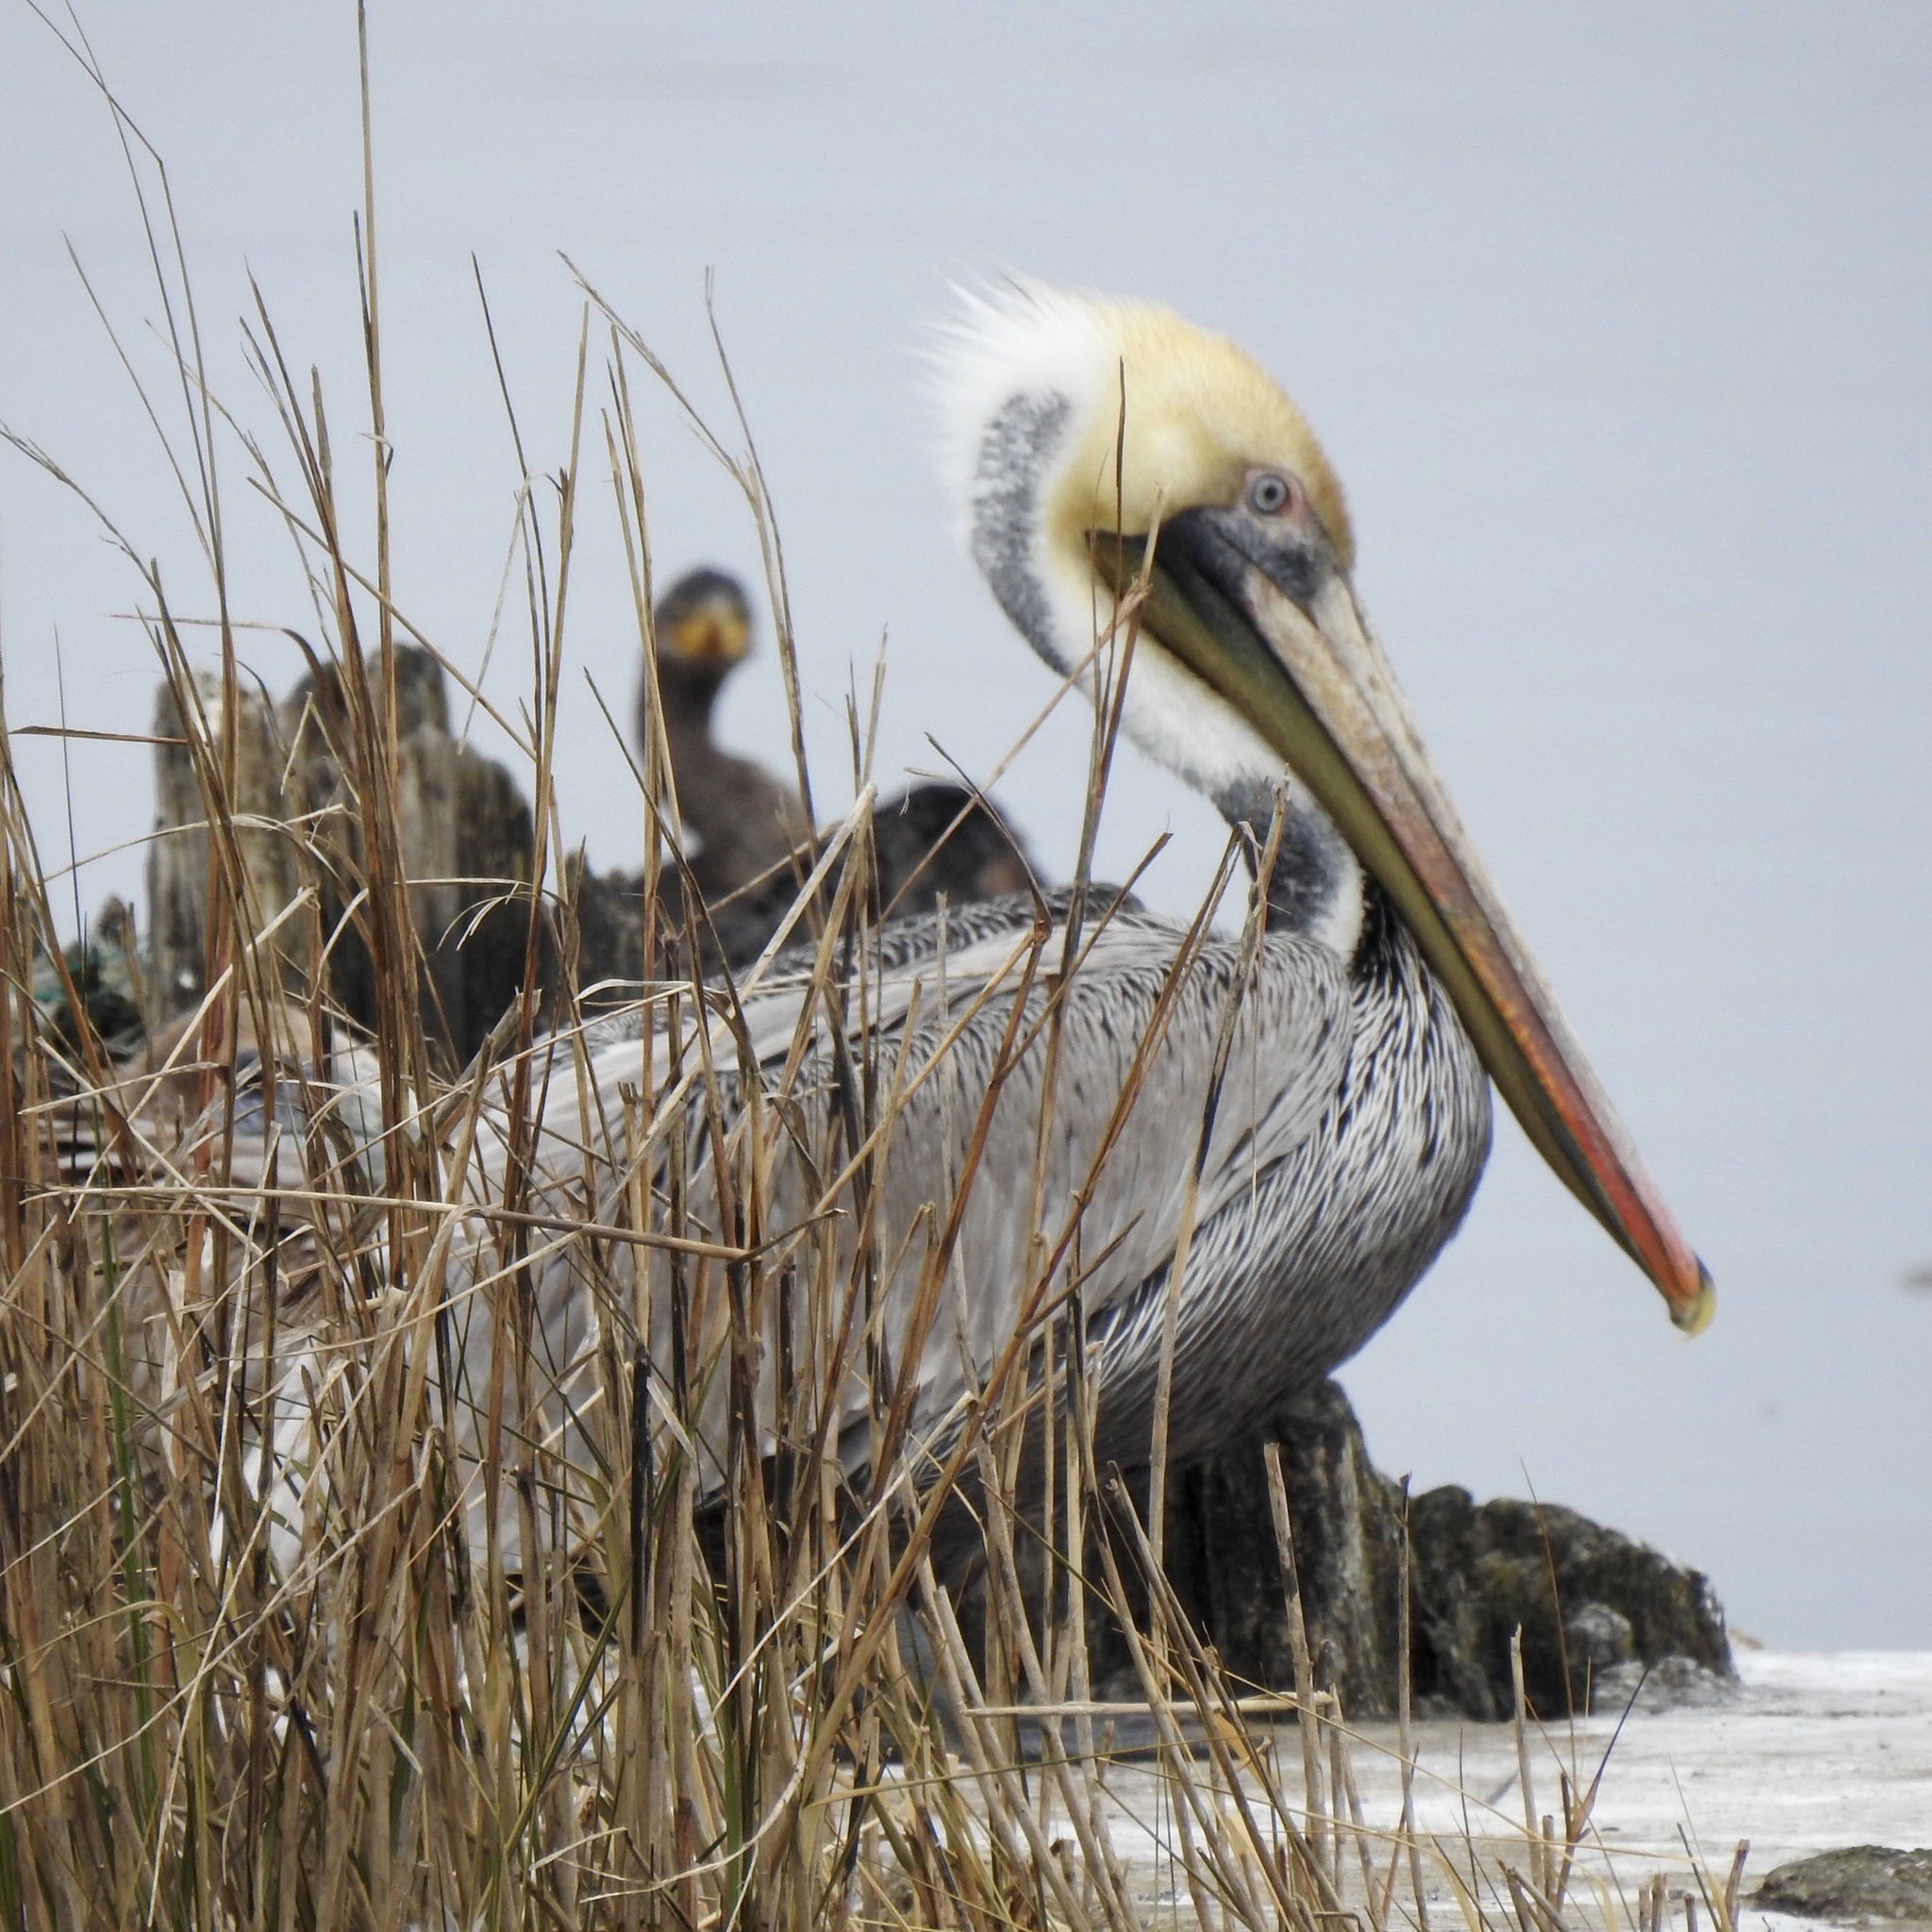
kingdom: Animalia
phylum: Chordata
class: Aves
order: Pelecaniformes
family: Pelecanidae
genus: Pelecanus
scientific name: Pelecanus occidentalis
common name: Brown pelican
